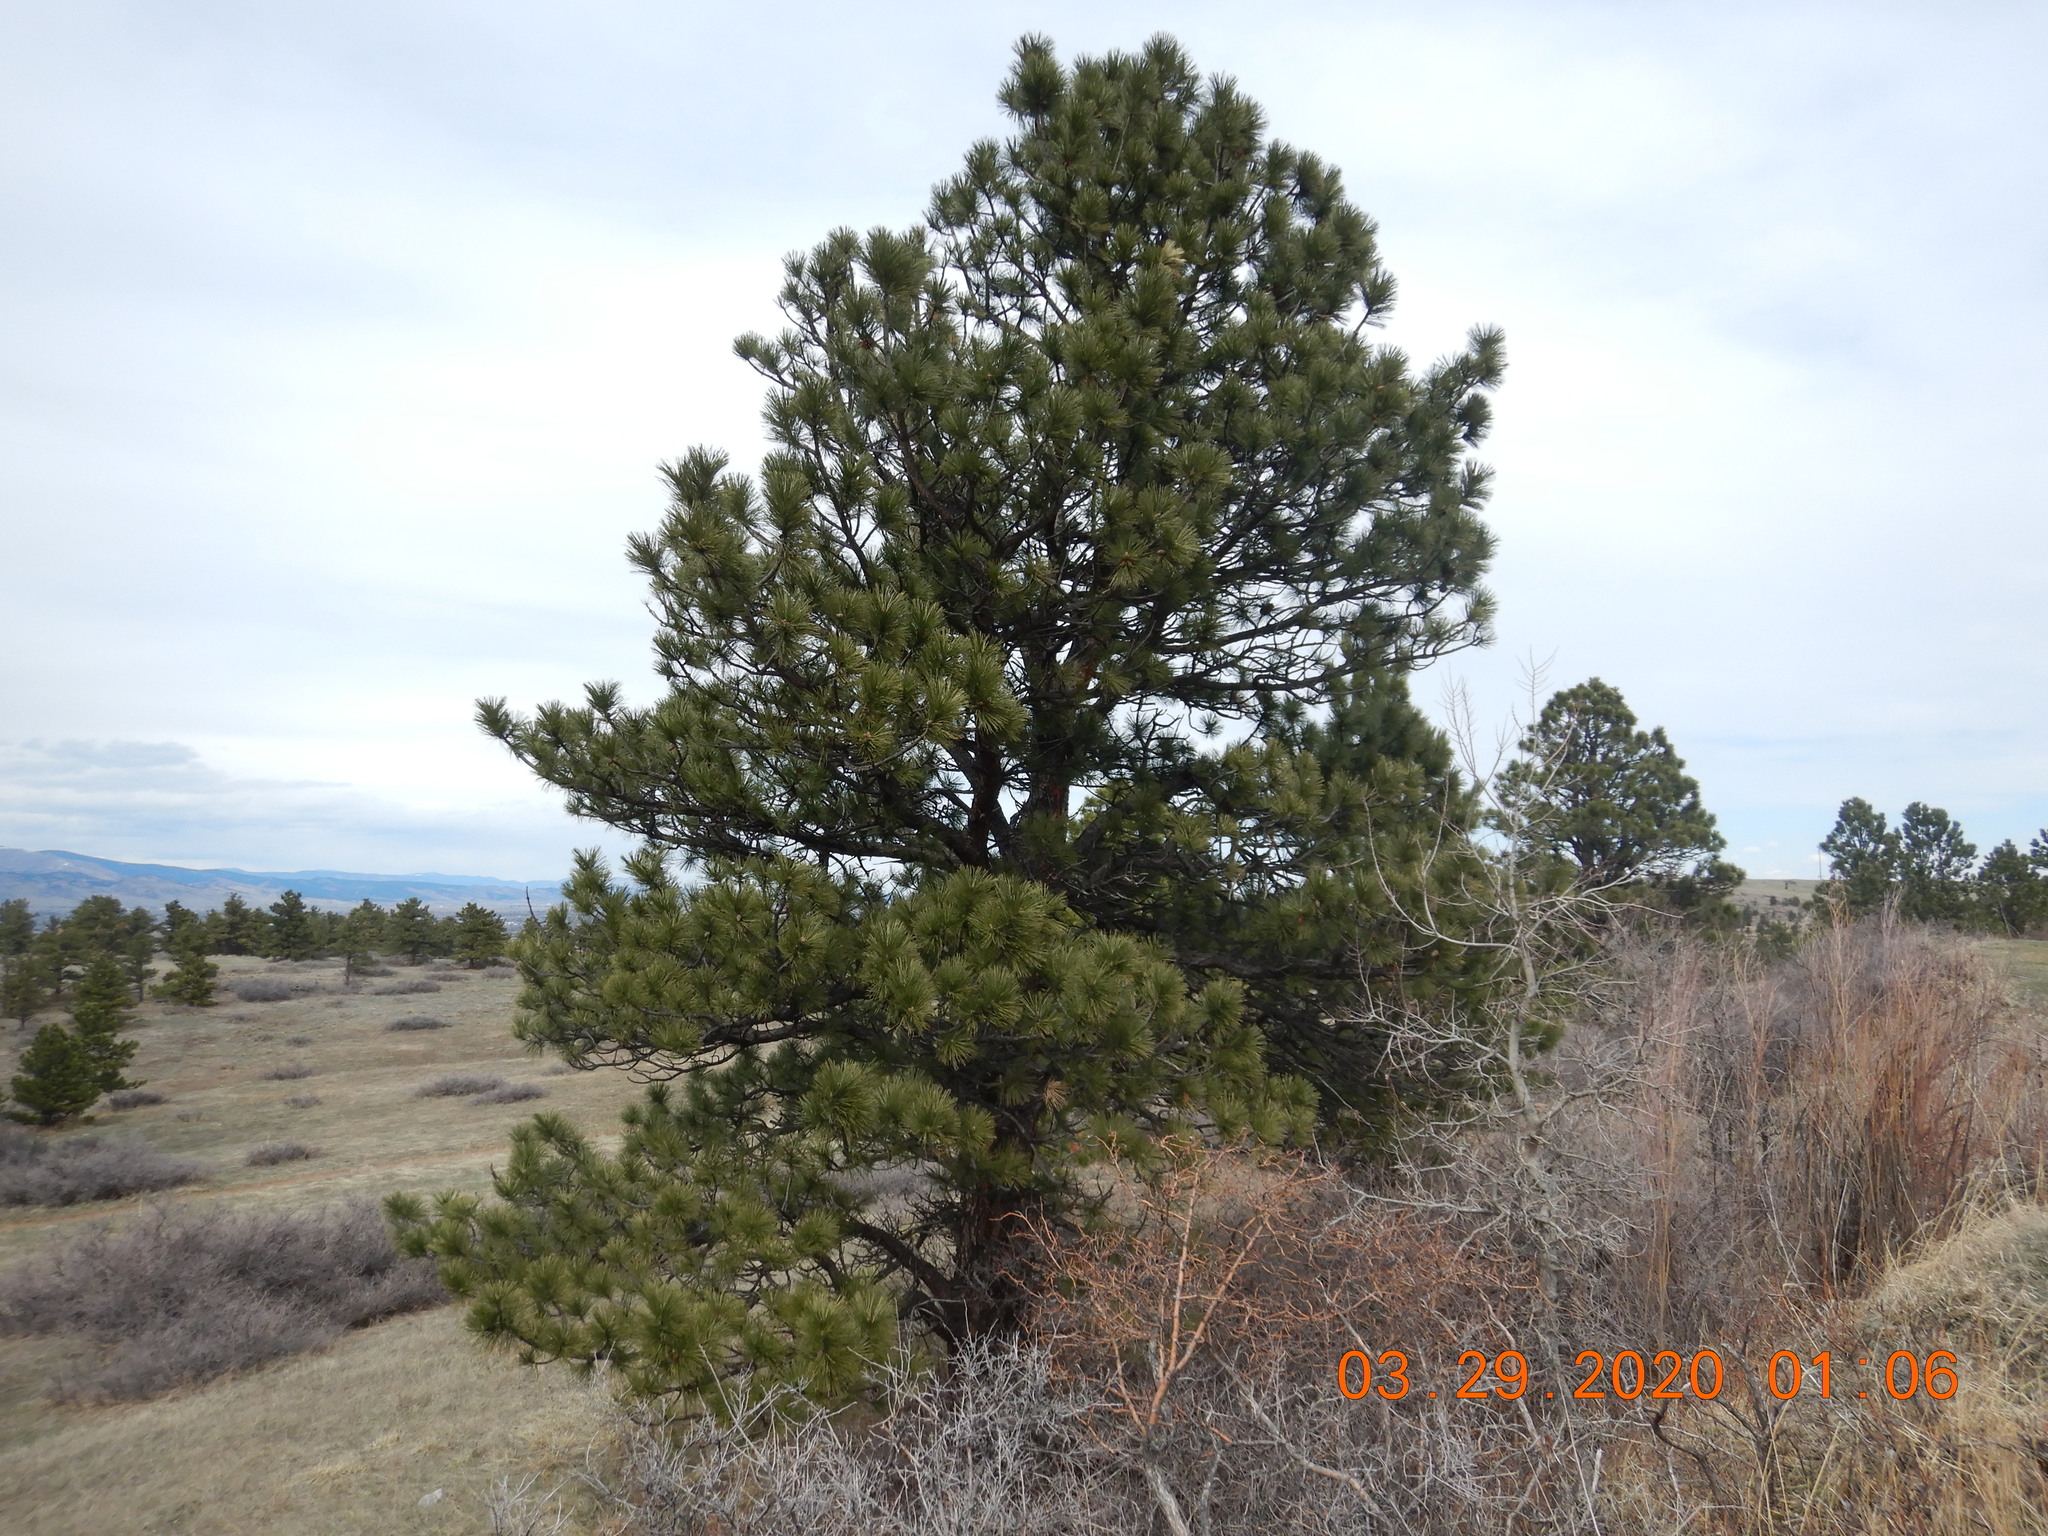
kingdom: Plantae
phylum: Tracheophyta
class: Pinopsida
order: Pinales
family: Pinaceae
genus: Pinus
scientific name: Pinus ponderosa
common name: Western yellow-pine
